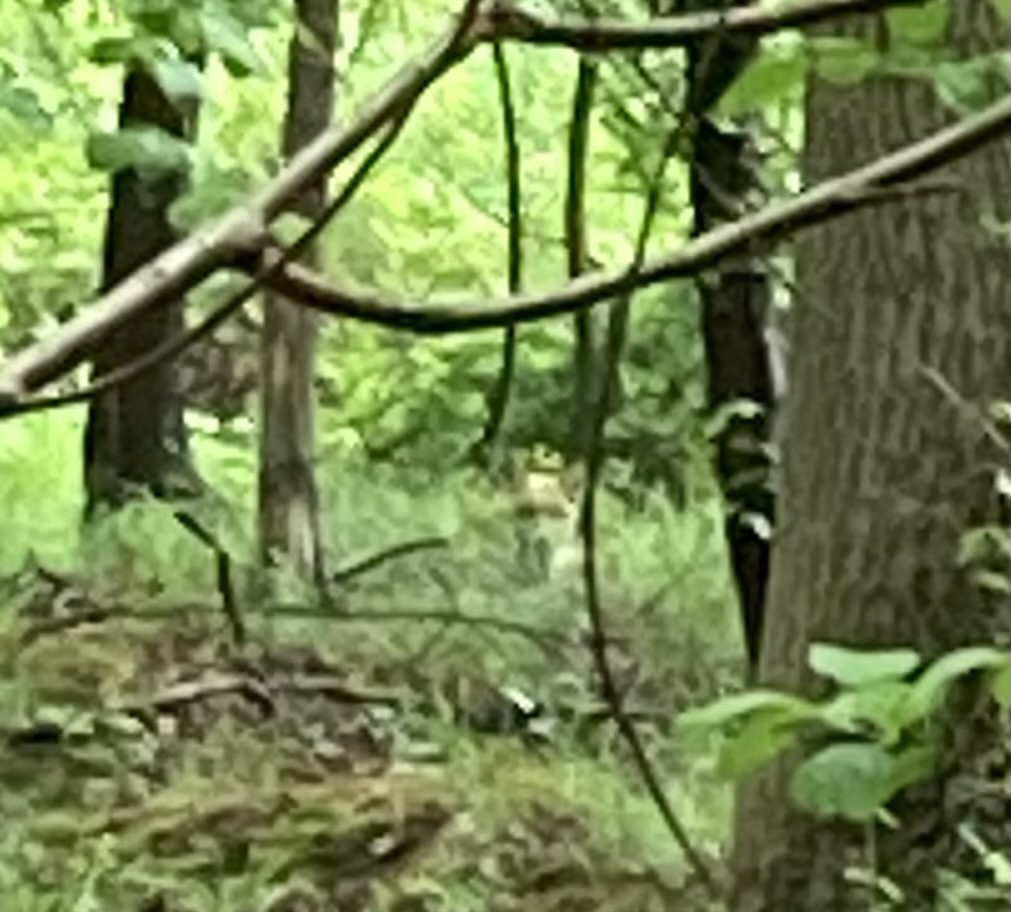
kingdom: Animalia
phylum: Chordata
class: Mammalia
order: Carnivora
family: Canidae
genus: Vulpes
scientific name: Vulpes vulpes
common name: Red fox
